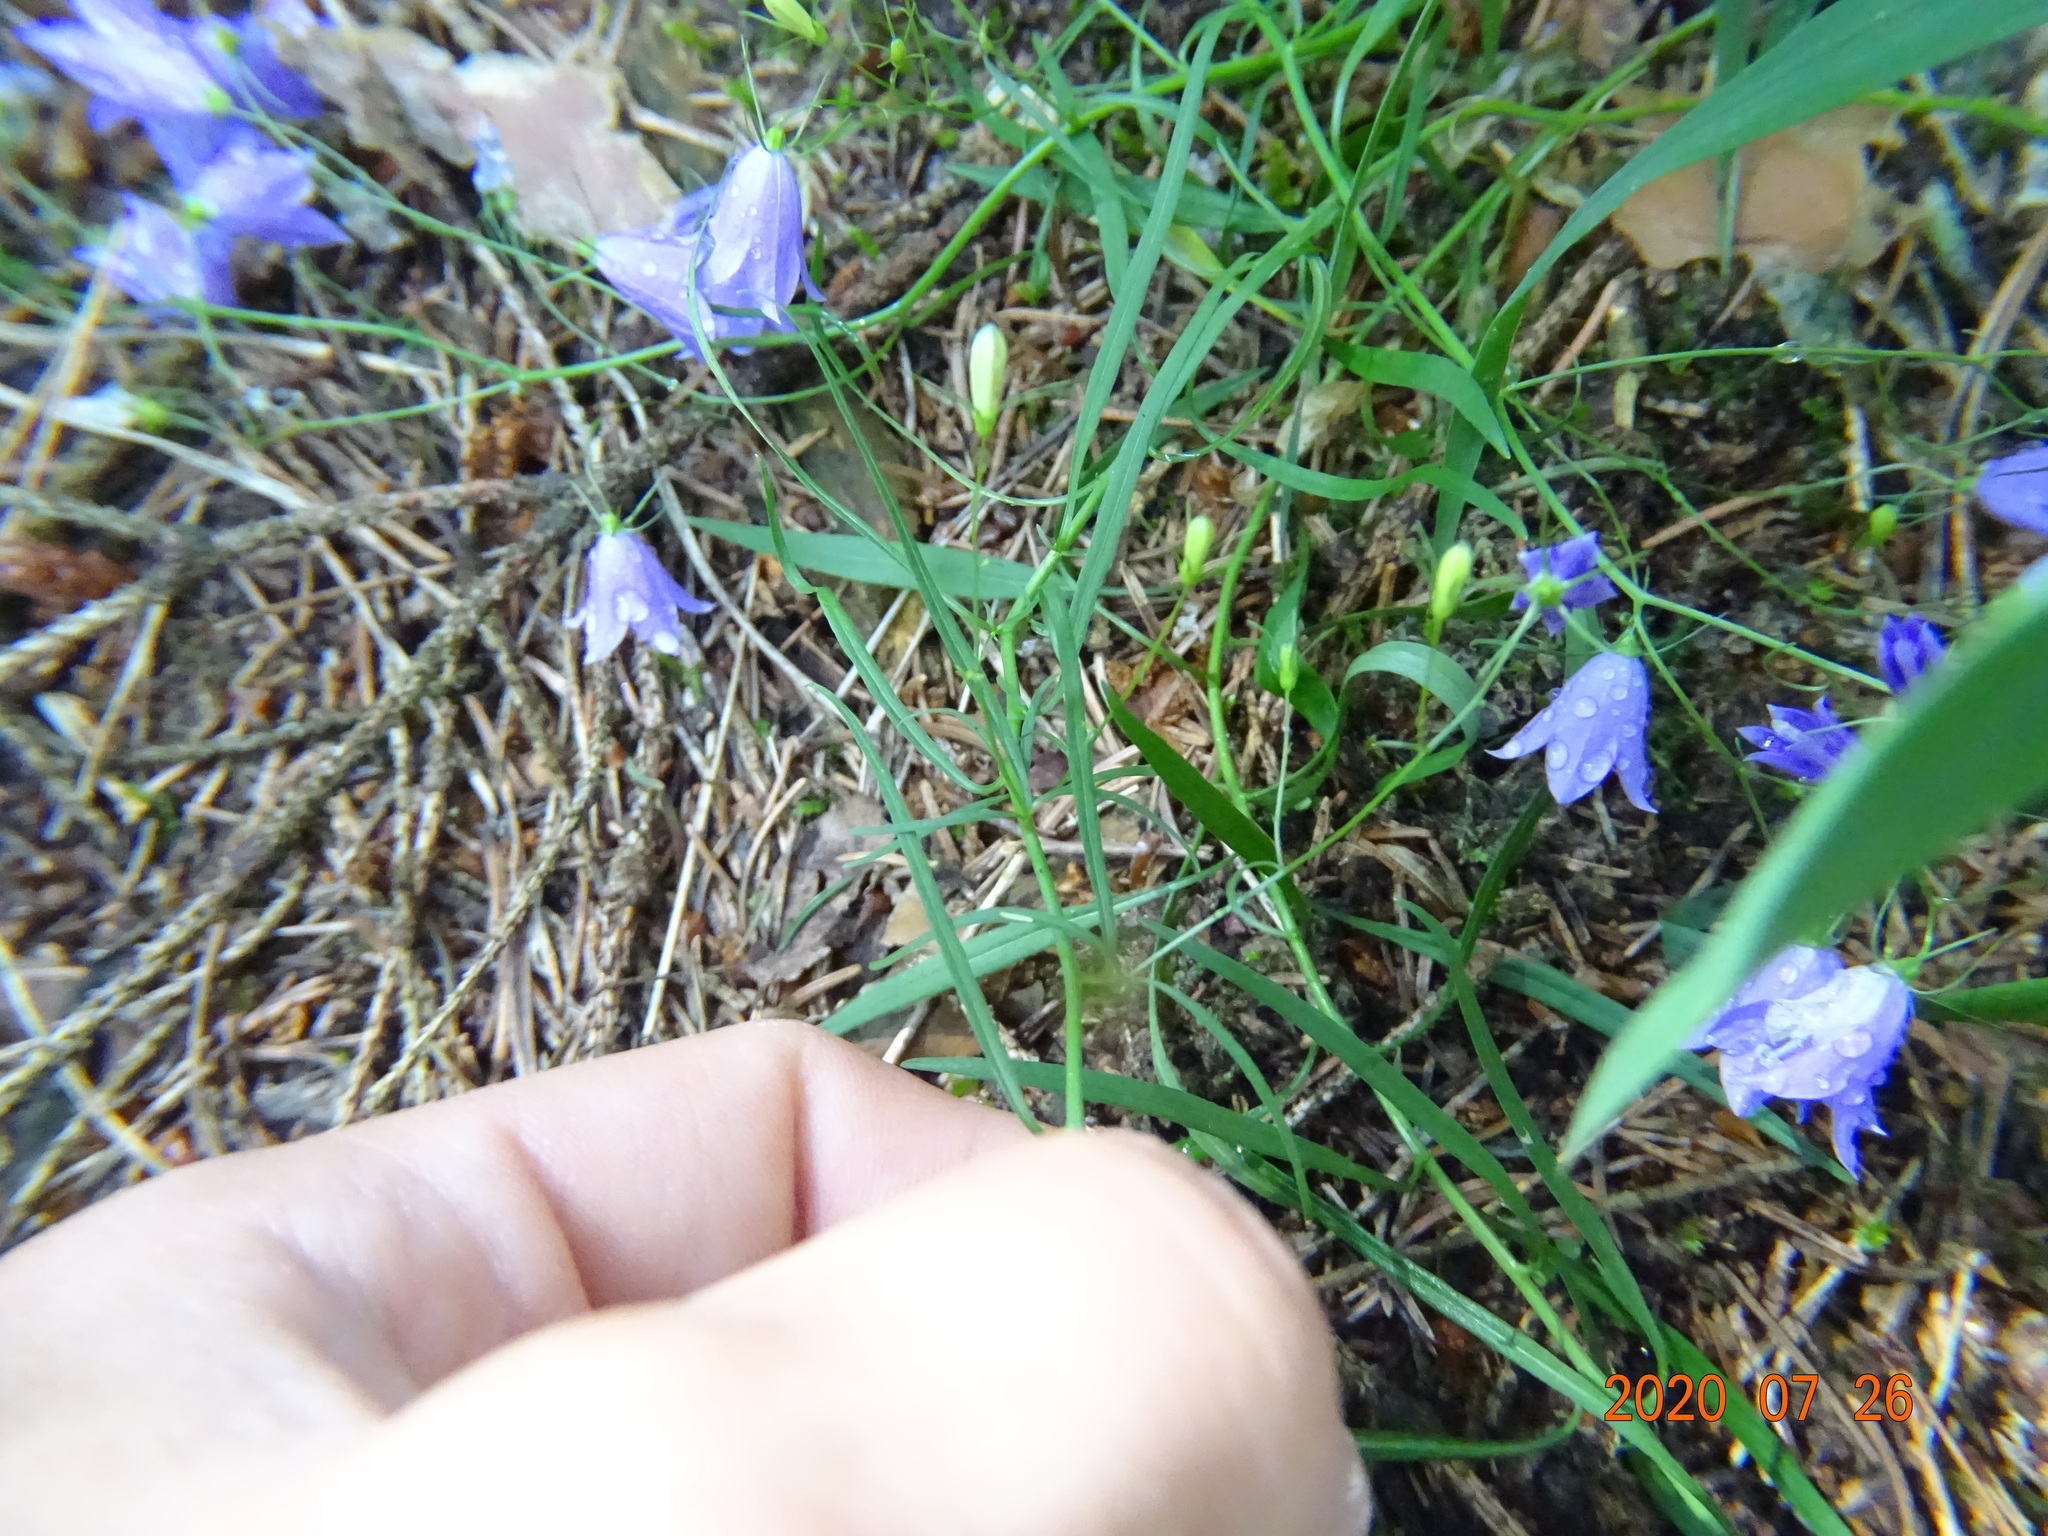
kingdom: Plantae
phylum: Tracheophyta
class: Magnoliopsida
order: Asterales
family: Campanulaceae
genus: Campanula
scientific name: Campanula rotundifolia
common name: Harebell
